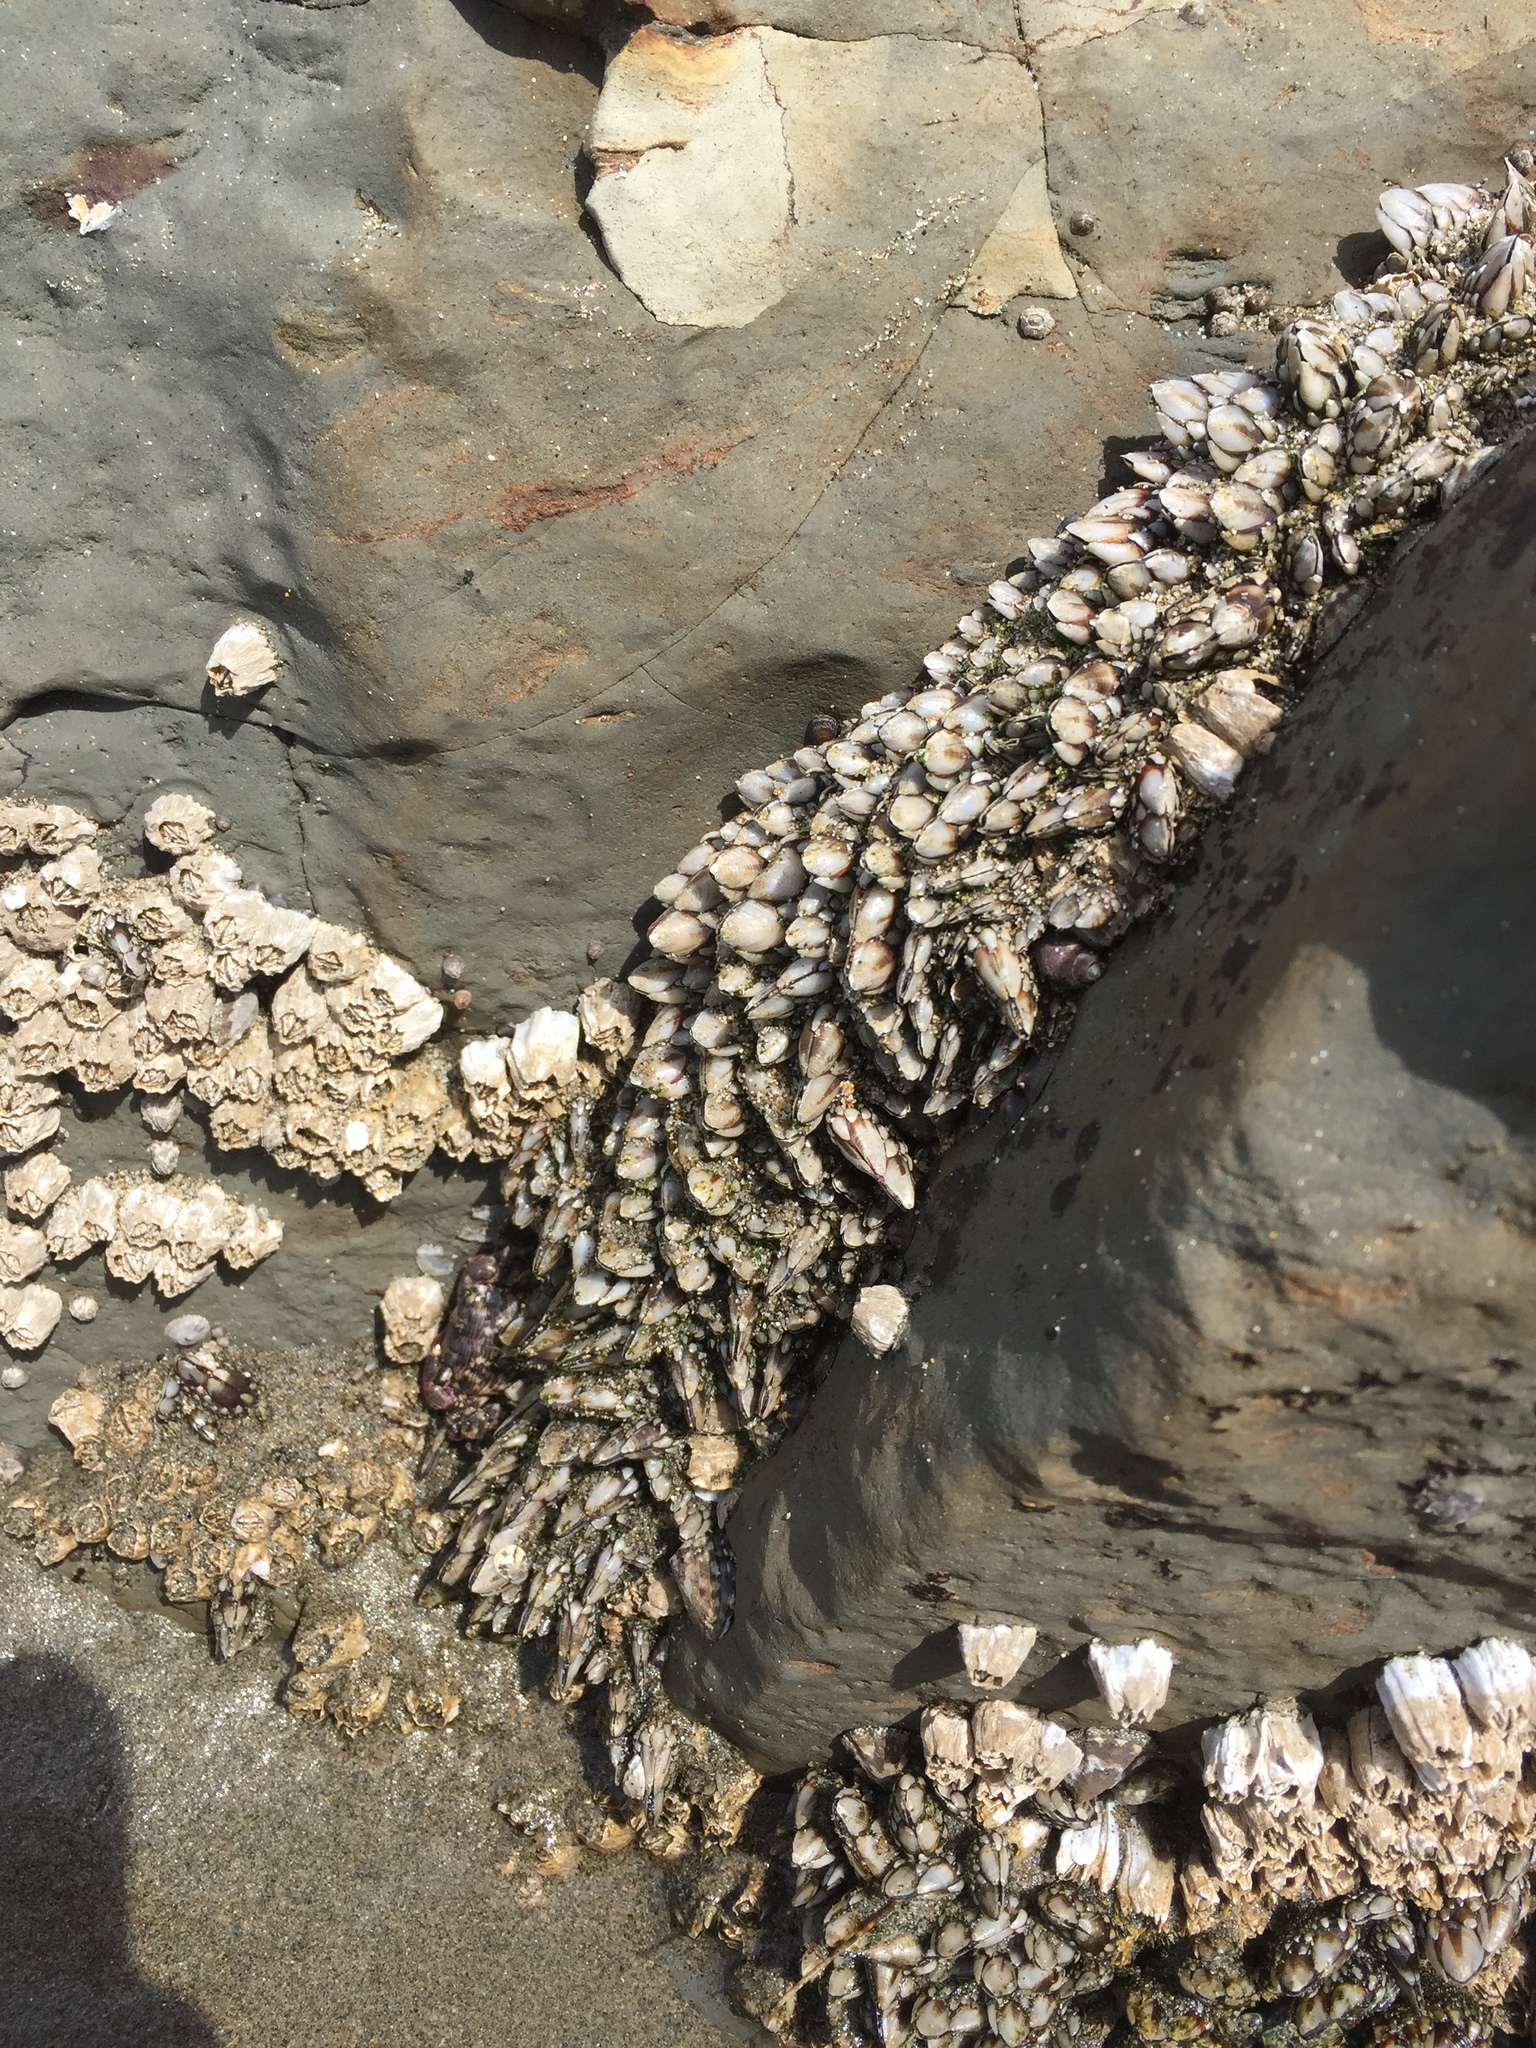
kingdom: Animalia
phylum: Arthropoda
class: Maxillopoda
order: Pedunculata
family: Pollicipedidae
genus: Pollicipes
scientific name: Pollicipes polymerus
